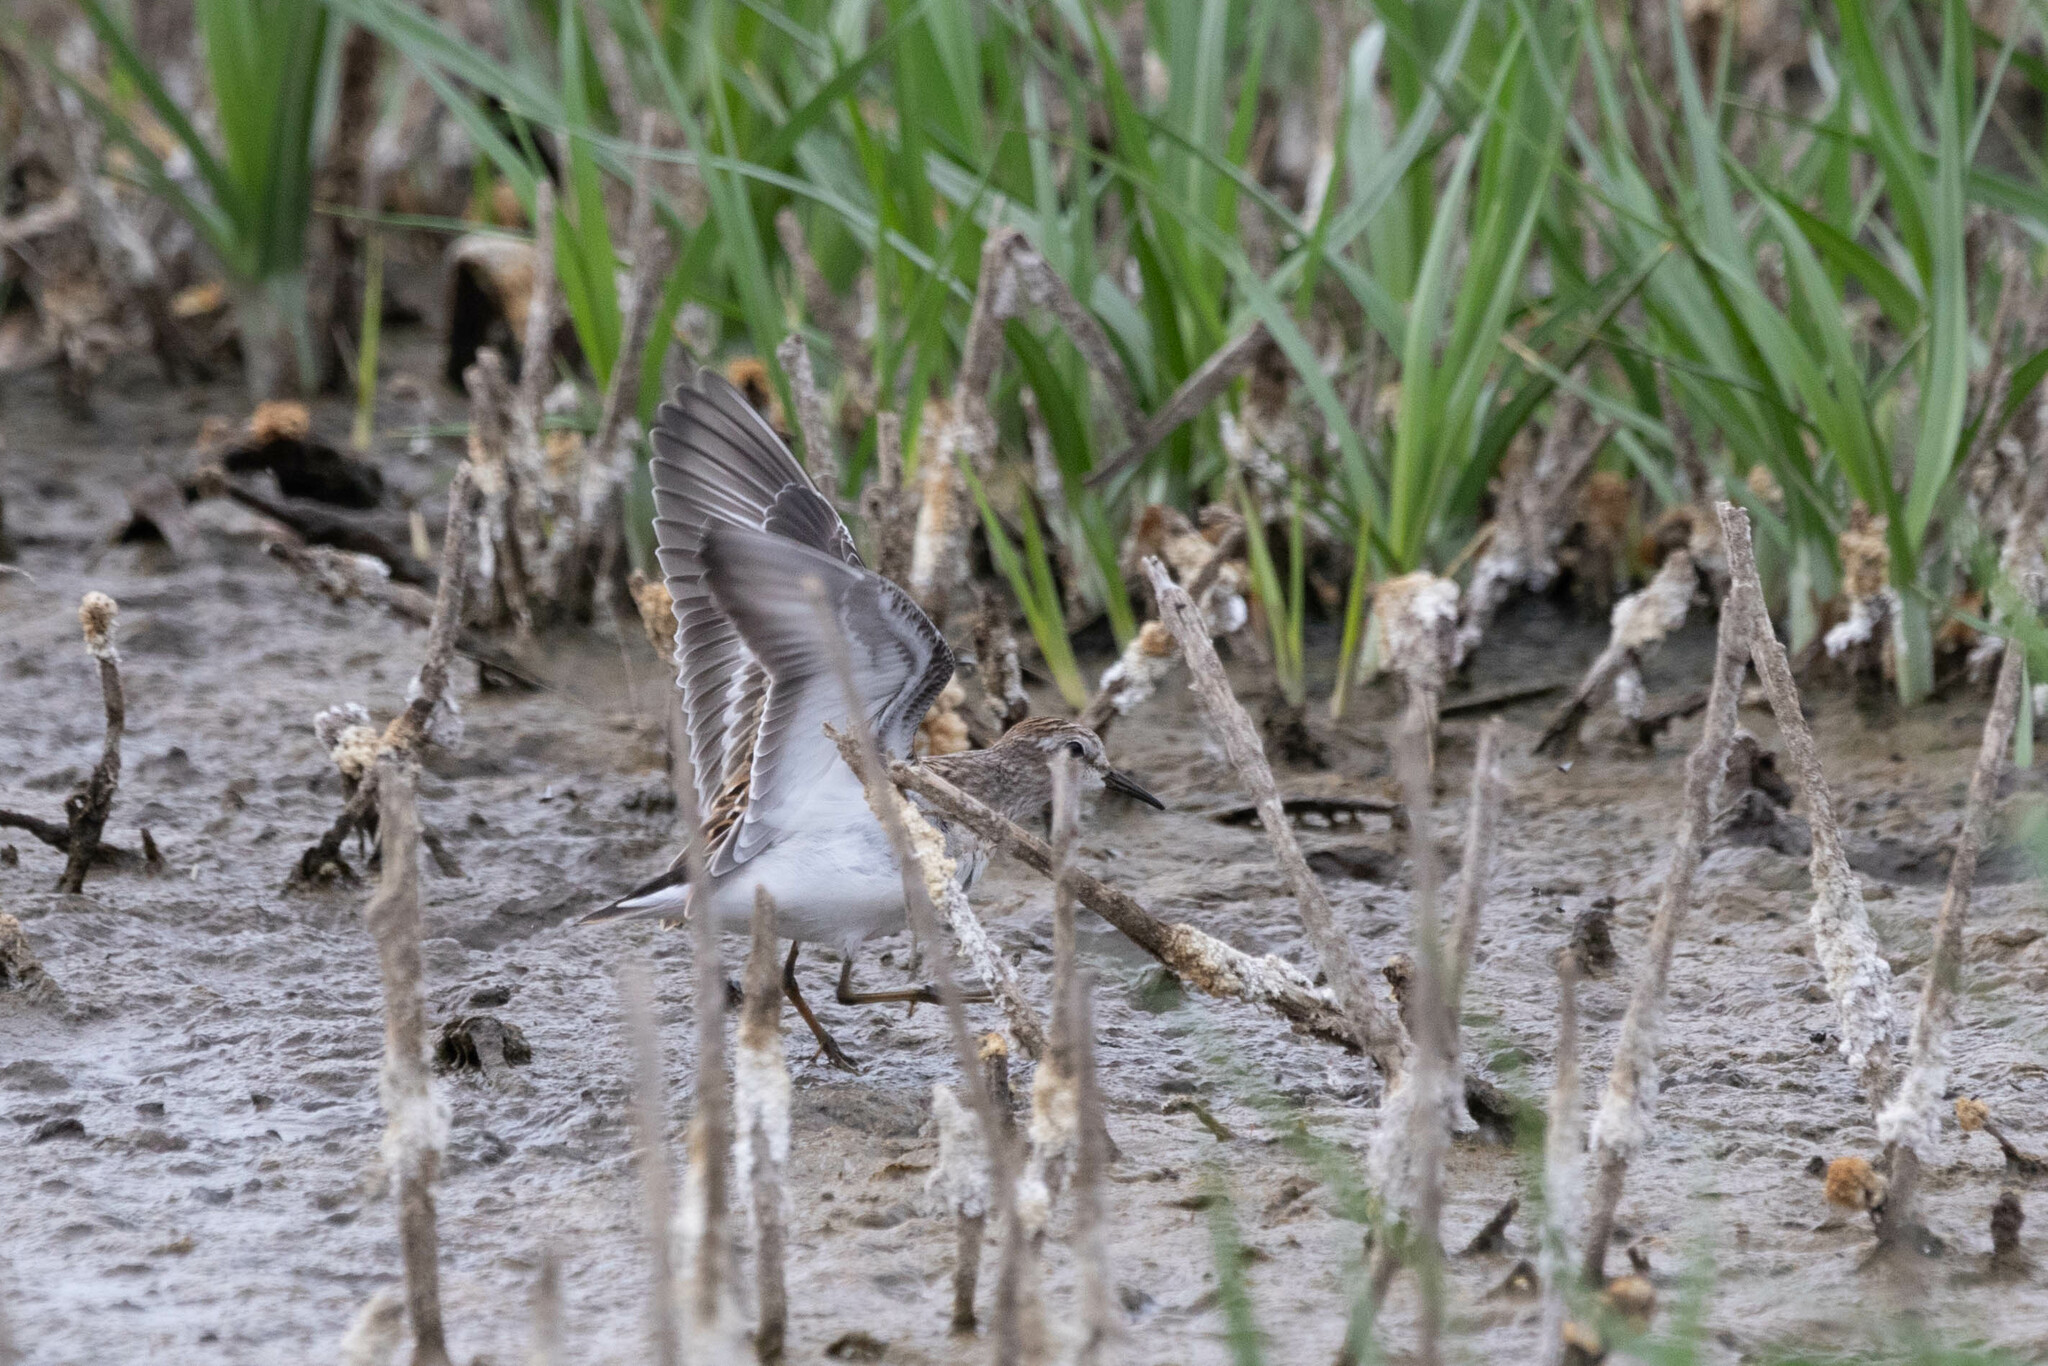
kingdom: Animalia
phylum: Chordata
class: Aves
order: Charadriiformes
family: Scolopacidae
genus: Calidris
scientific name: Calidris minutilla
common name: Least sandpiper
